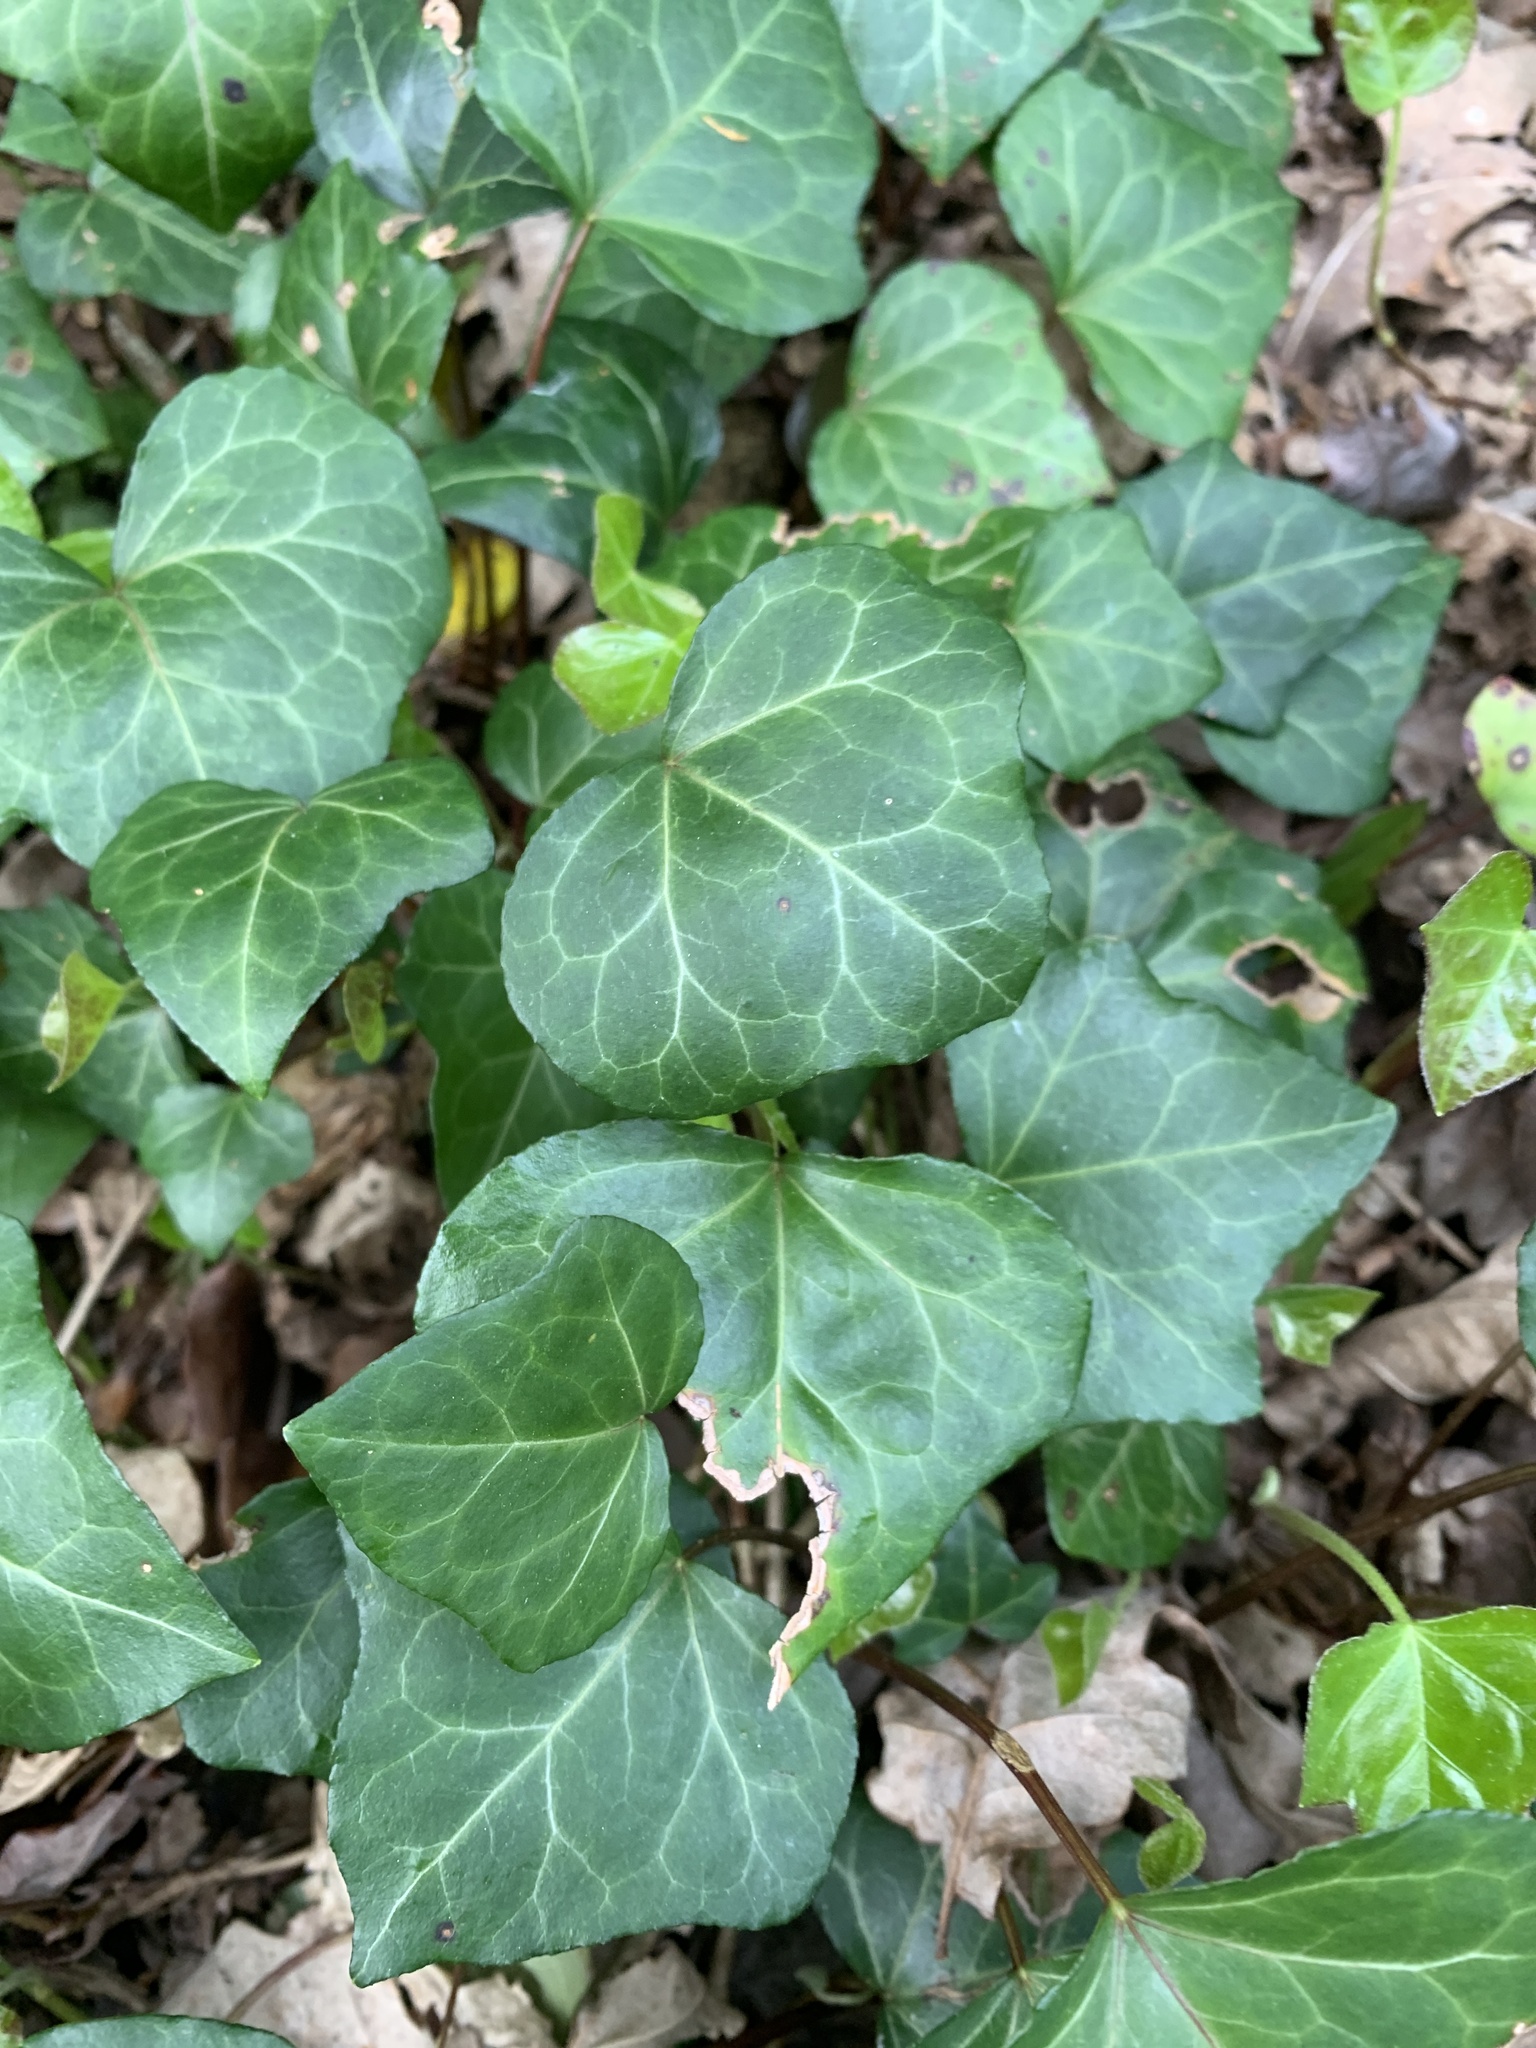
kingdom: Plantae
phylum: Tracheophyta
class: Magnoliopsida
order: Apiales
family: Araliaceae
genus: Hedera
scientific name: Hedera helix
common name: Ivy
